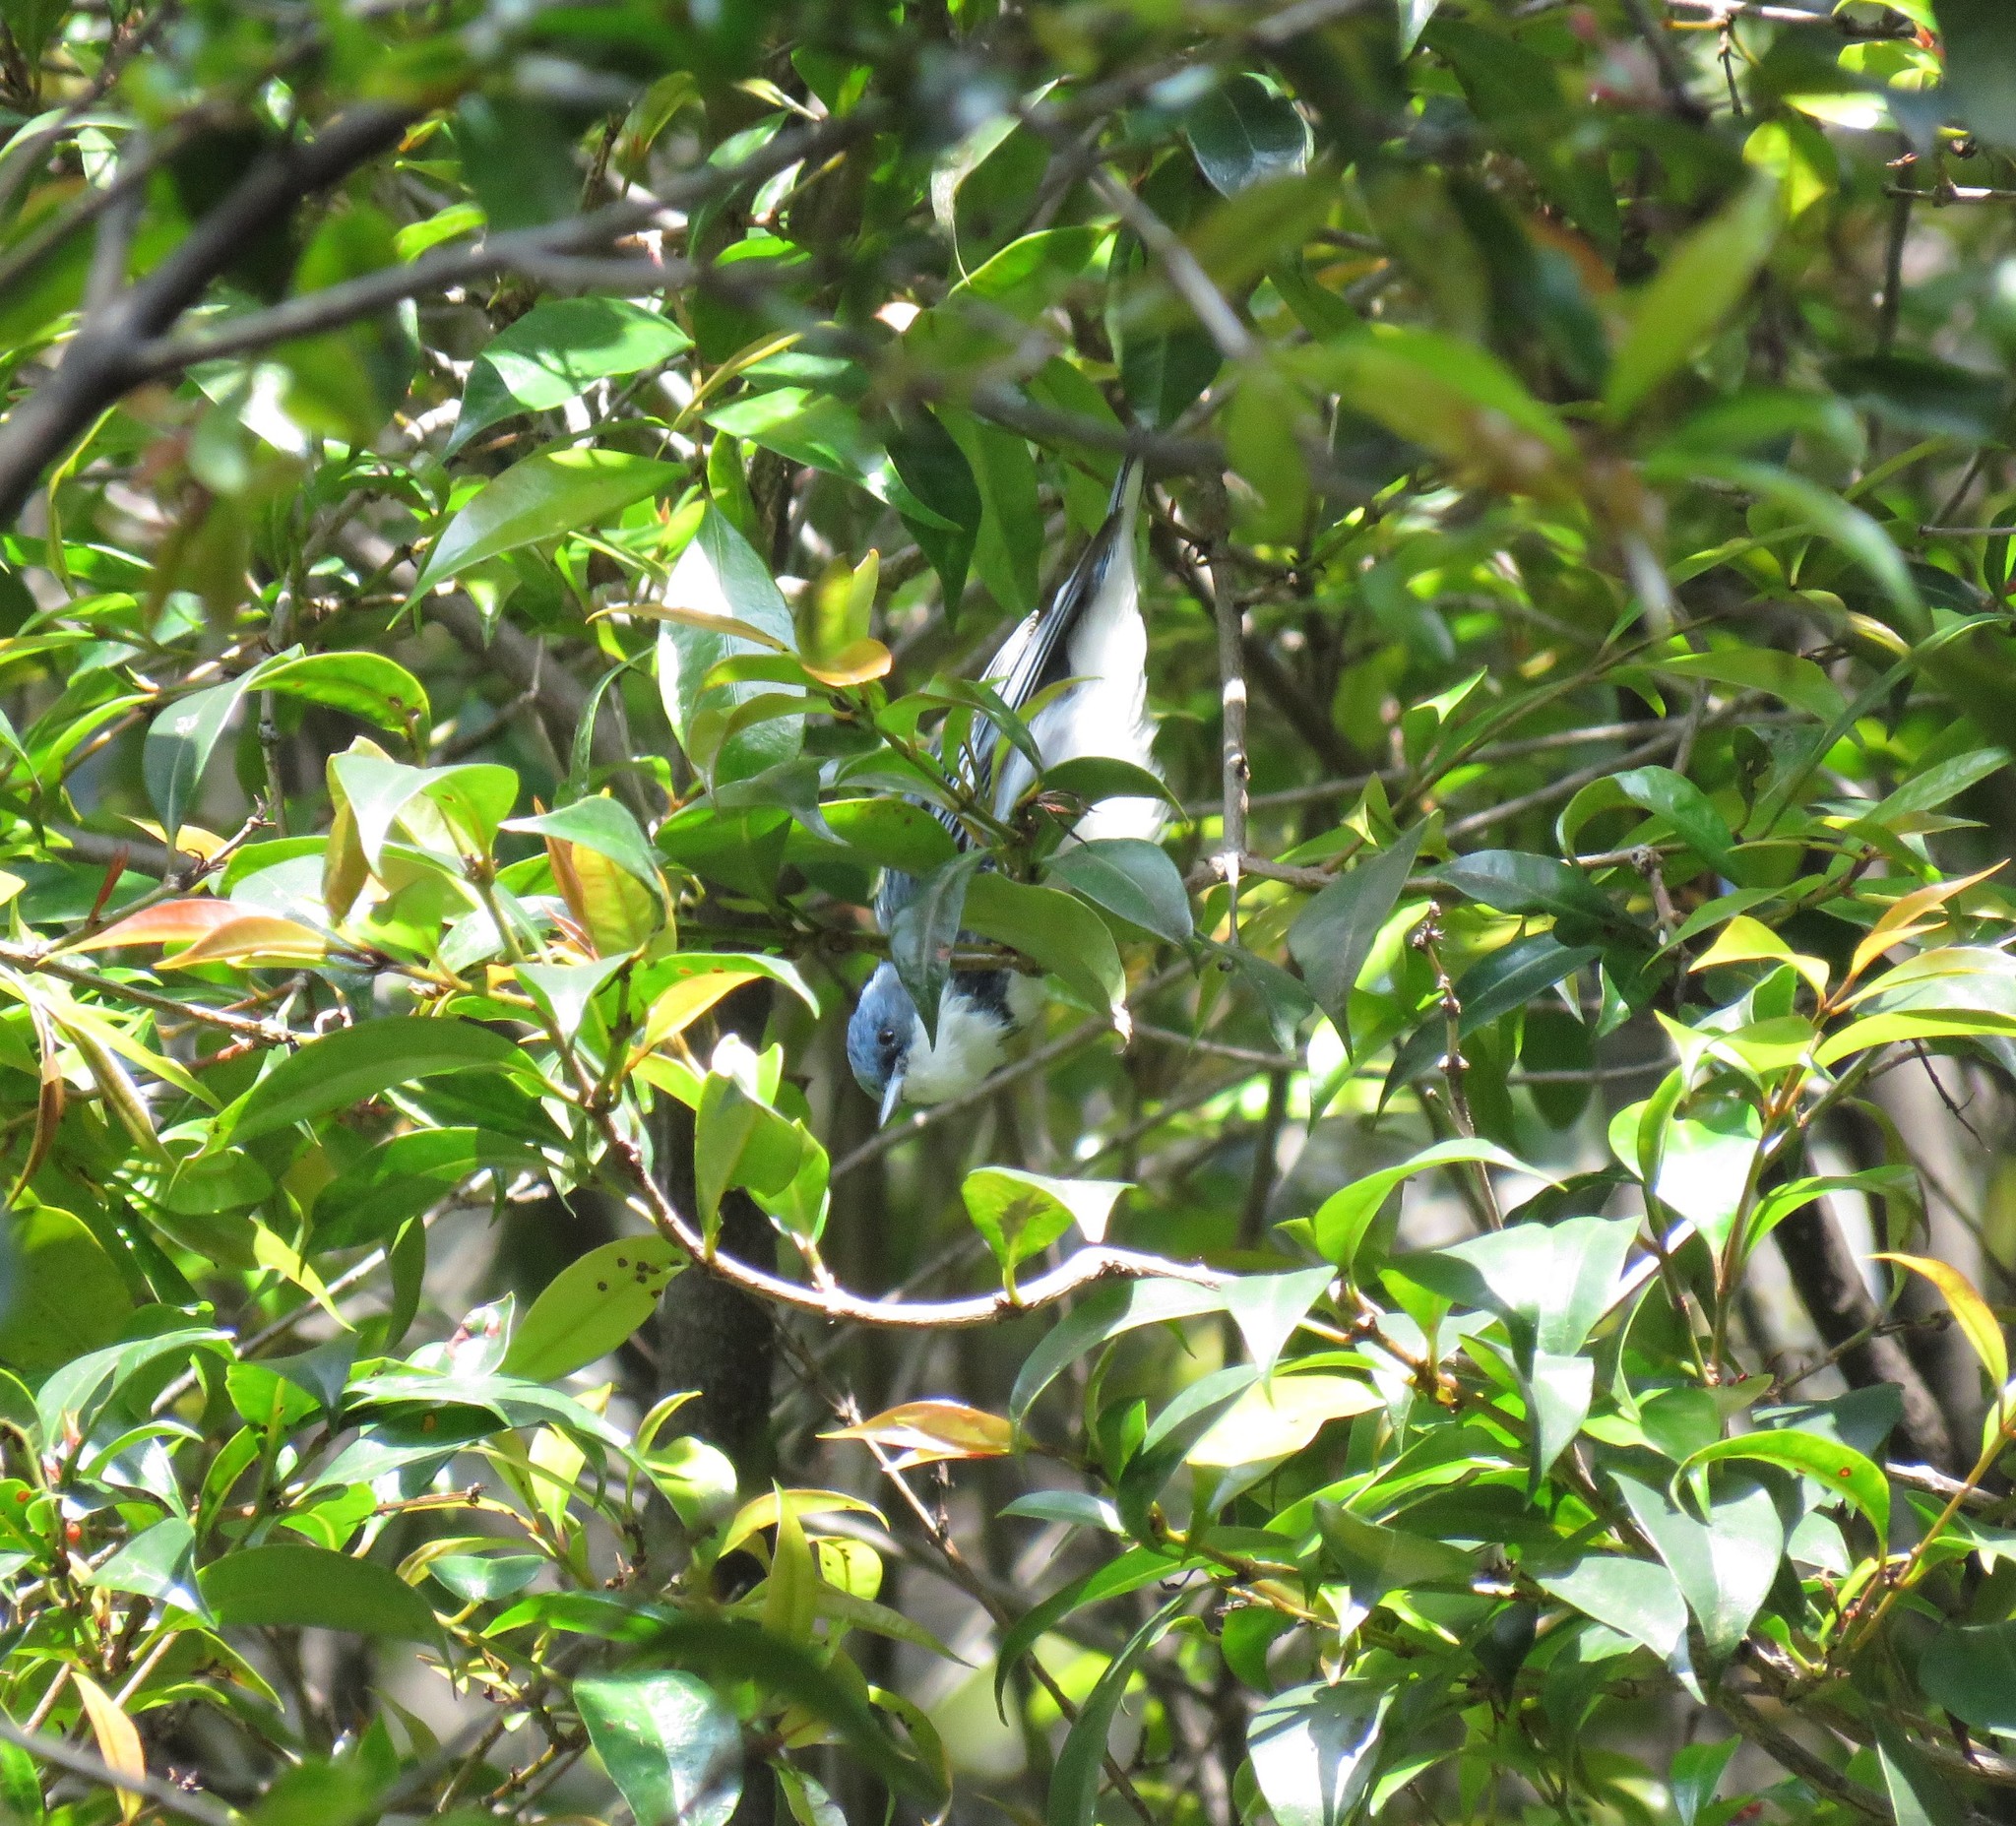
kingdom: Animalia
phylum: Chordata
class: Aves
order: Passeriformes
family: Parulidae
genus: Setophaga
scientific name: Setophaga cerulea
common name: Cerulean warbler
